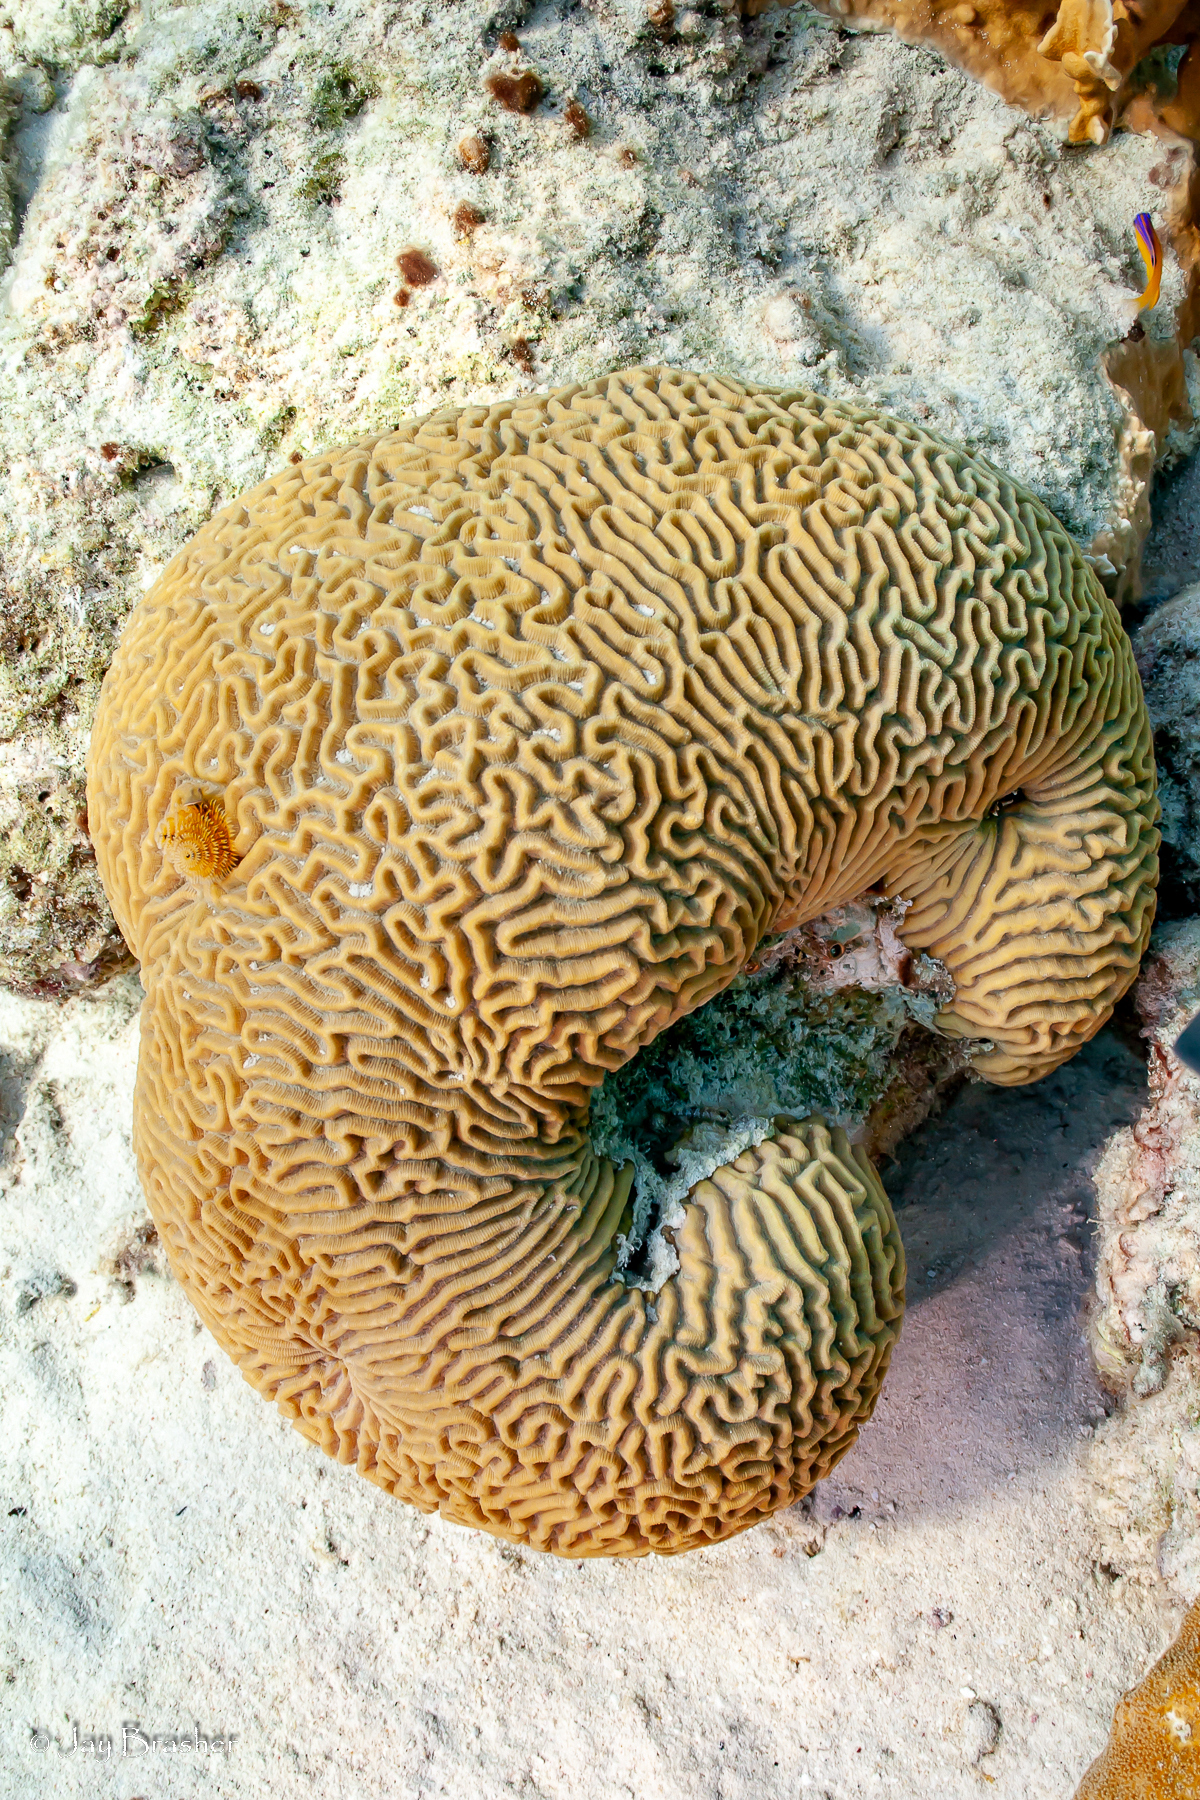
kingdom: Animalia
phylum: Cnidaria
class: Anthozoa
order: Scleractinia
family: Faviidae
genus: Pseudodiploria
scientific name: Pseudodiploria strigosa
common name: Symmetrical brain coral
